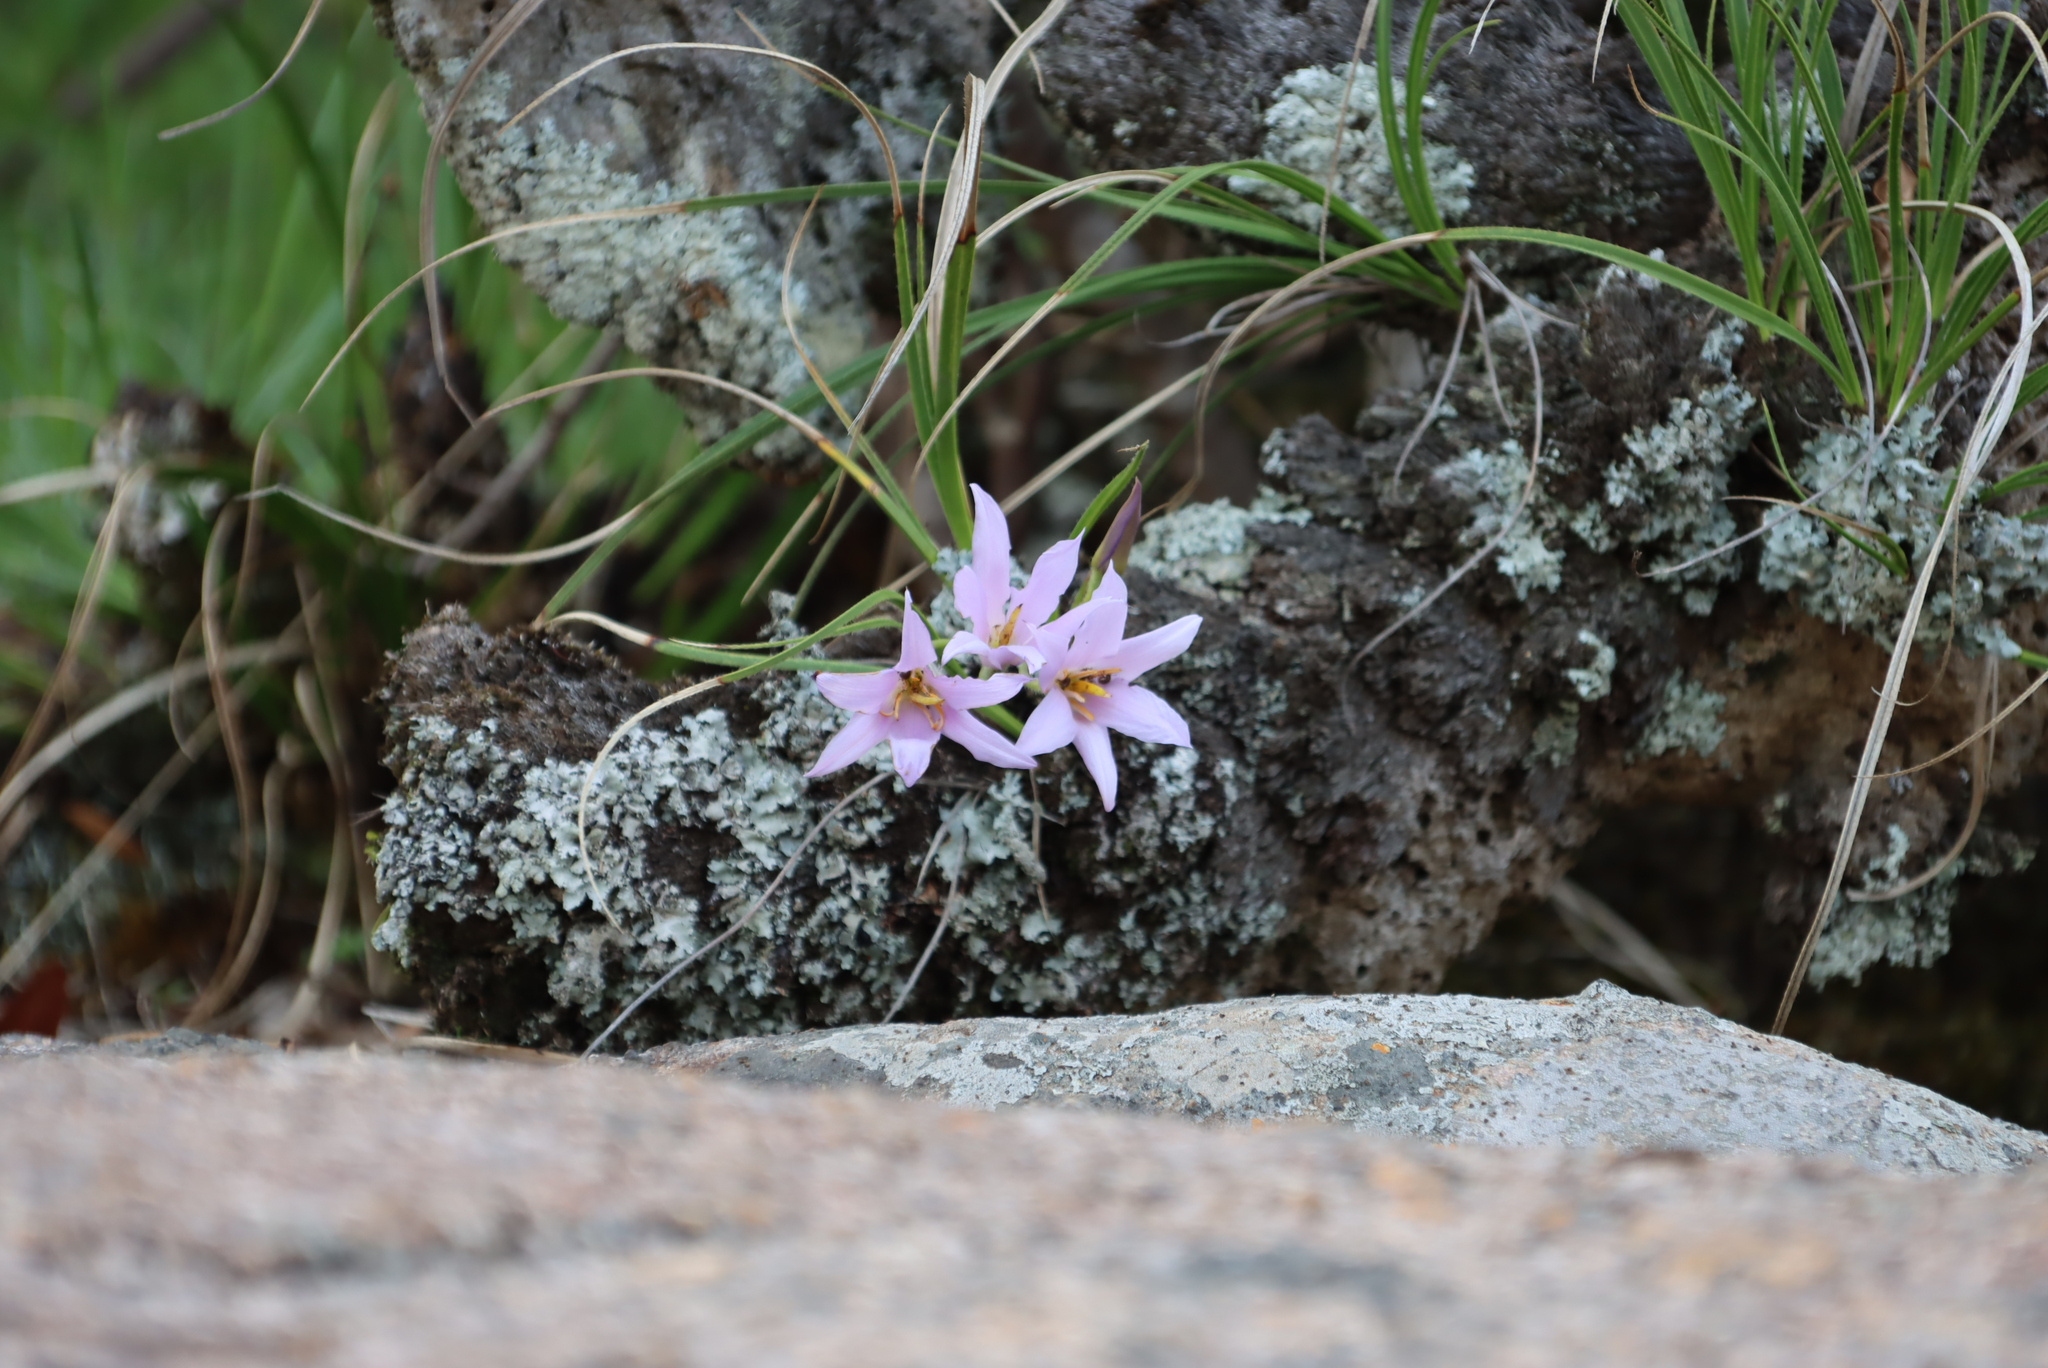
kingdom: Plantae
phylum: Tracheophyta
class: Liliopsida
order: Pandanales
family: Velloziaceae
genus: Xerophyta
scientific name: Xerophyta retinervis
